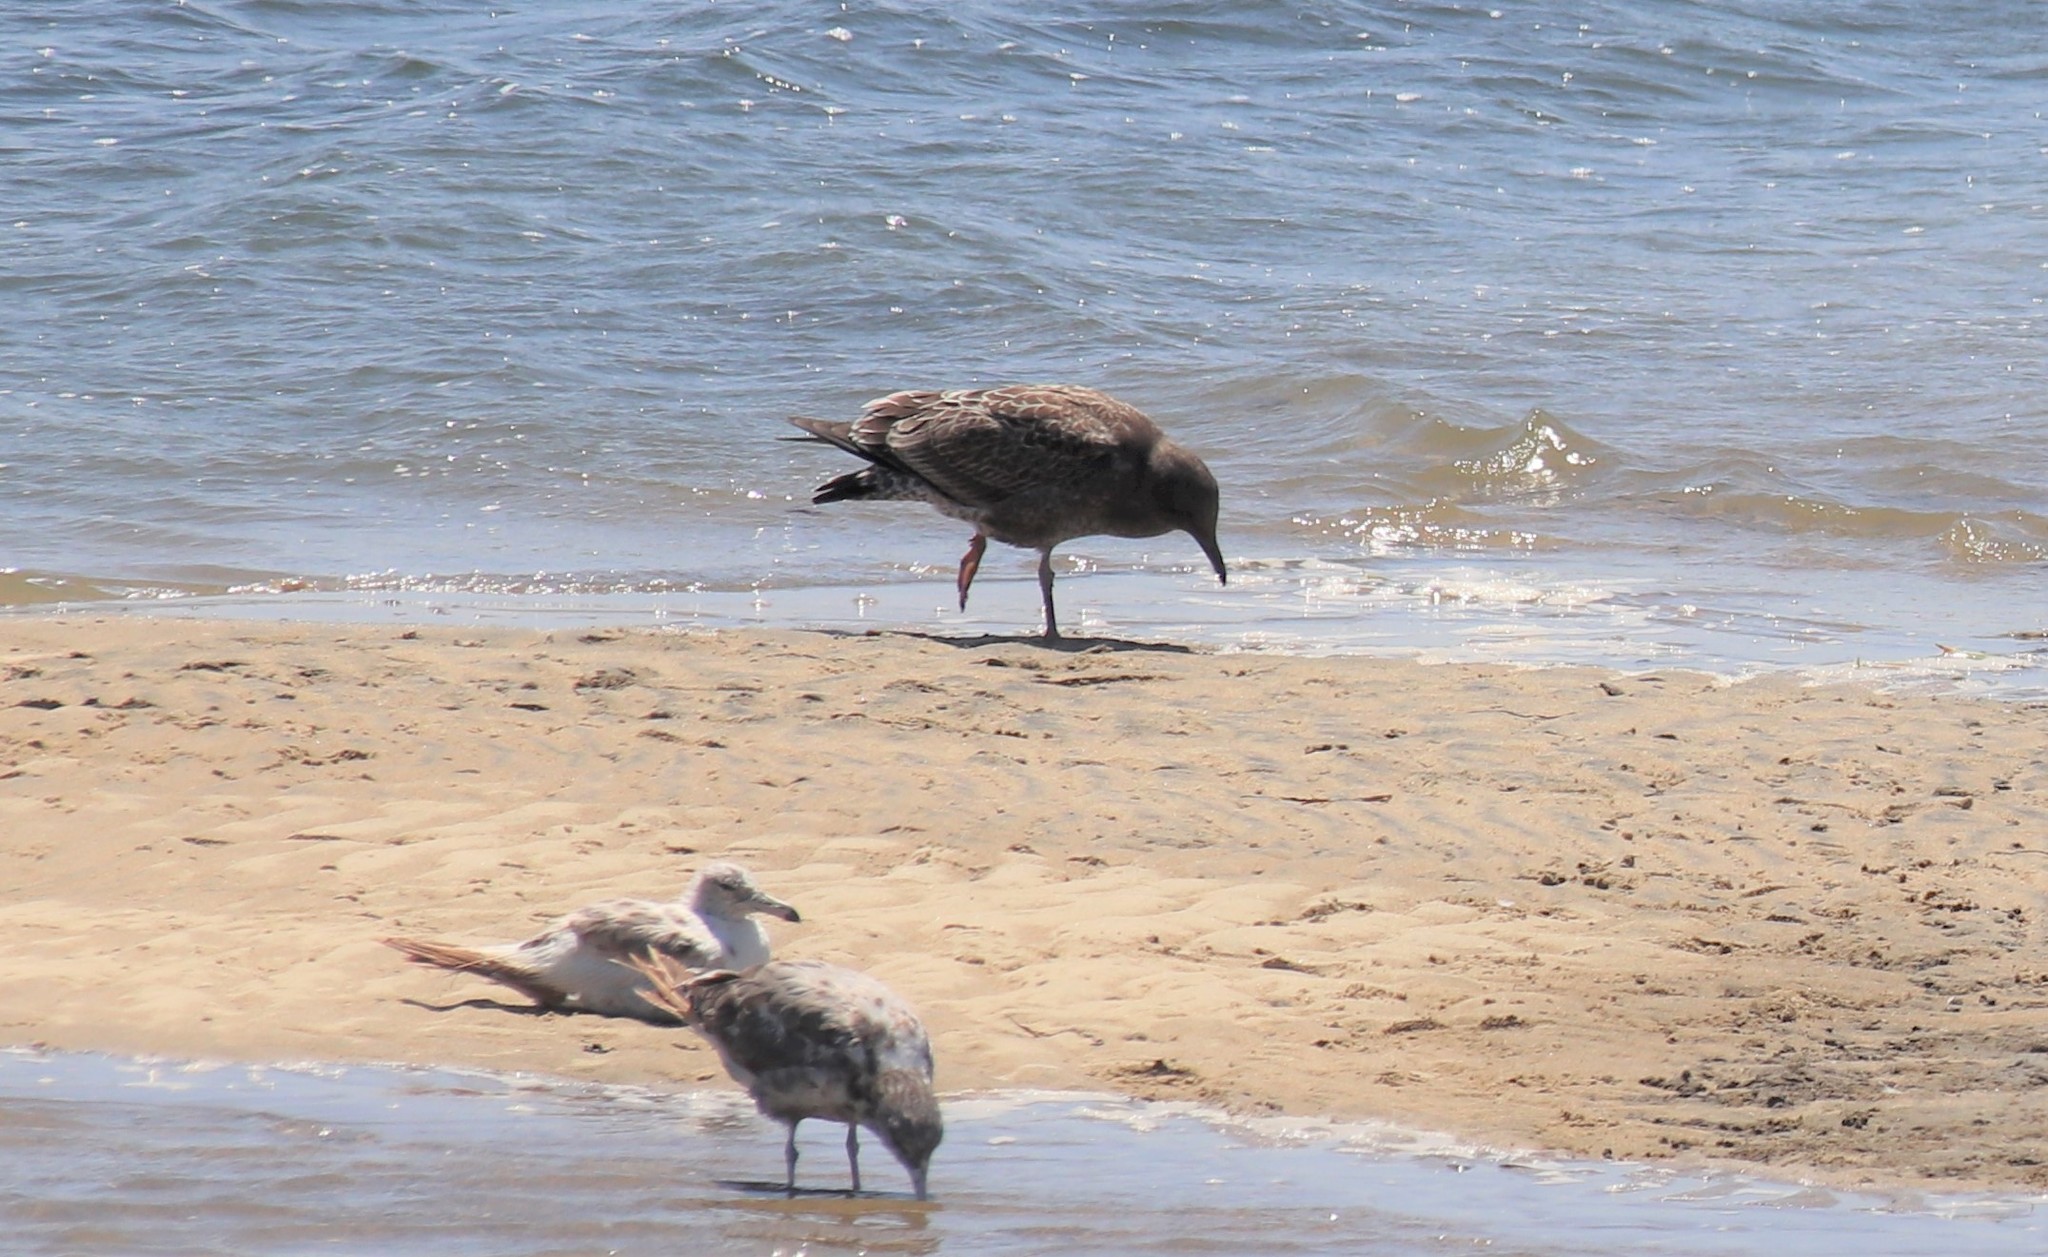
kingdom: Animalia
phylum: Chordata
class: Aves
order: Charadriiformes
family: Laridae
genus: Larus
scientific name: Larus occidentalis
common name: Western gull
